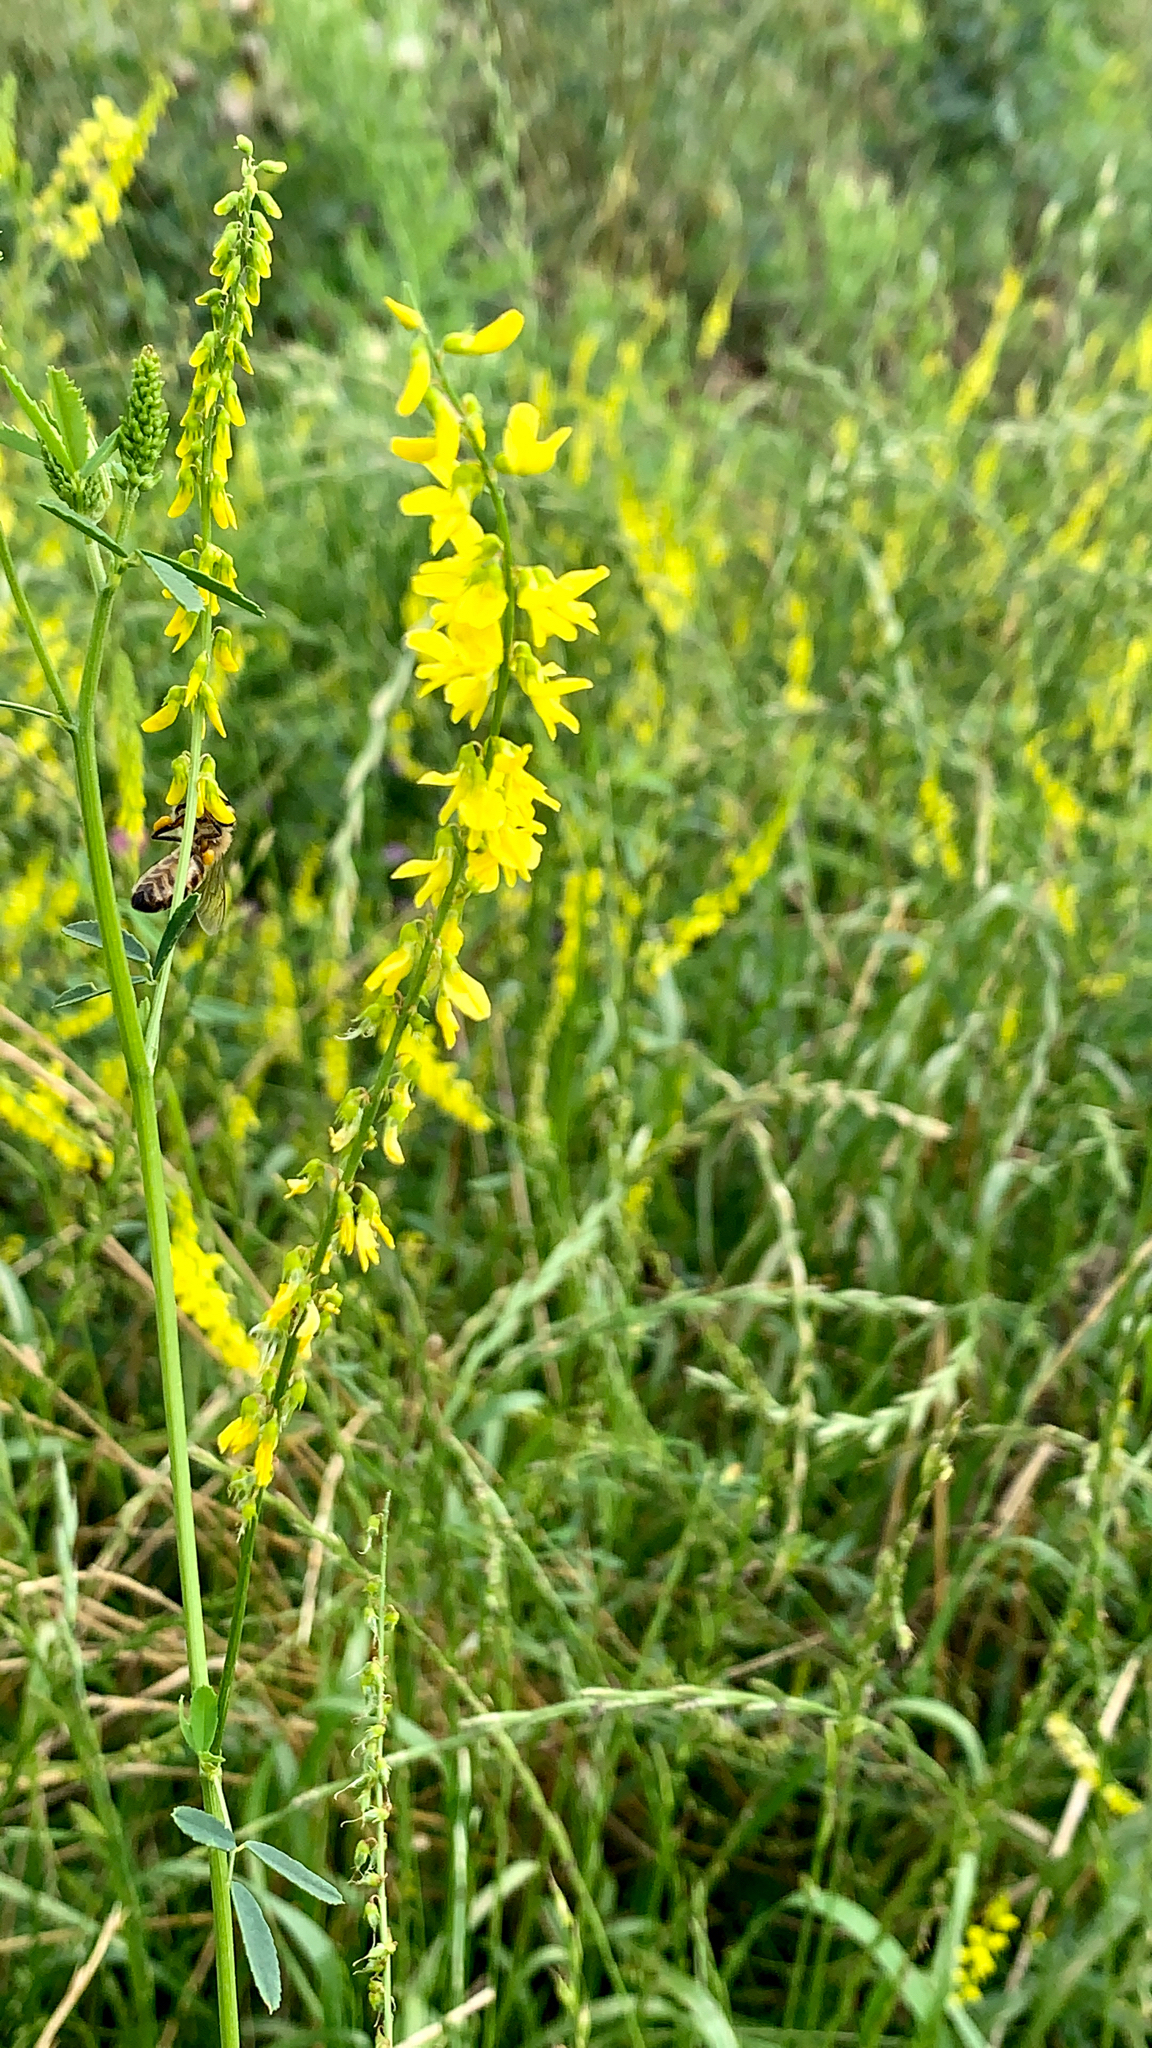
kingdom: Plantae
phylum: Tracheophyta
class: Magnoliopsida
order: Fabales
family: Fabaceae
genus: Melilotus
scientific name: Melilotus officinalis
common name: Sweetclover
